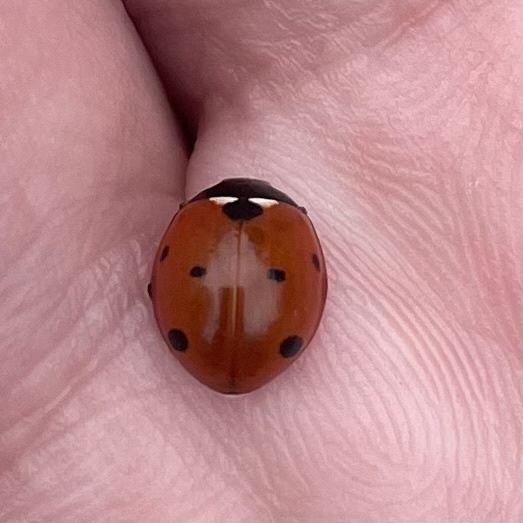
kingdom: Animalia
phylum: Arthropoda
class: Insecta
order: Coleoptera
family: Coccinellidae
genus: Coccinella
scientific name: Coccinella septempunctata
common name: Sevenspotted lady beetle
